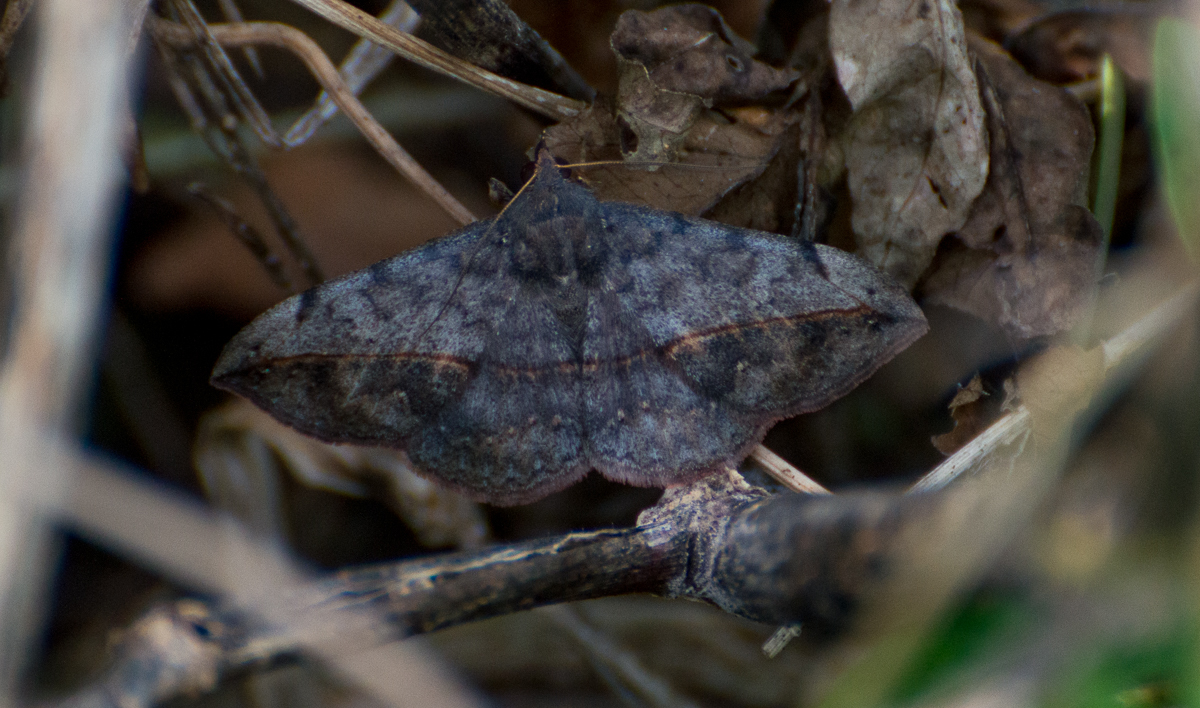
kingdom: Animalia
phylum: Arthropoda
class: Insecta
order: Lepidoptera
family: Erebidae
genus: Anticarsia
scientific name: Anticarsia gemmatalis
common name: Cutworm moth
